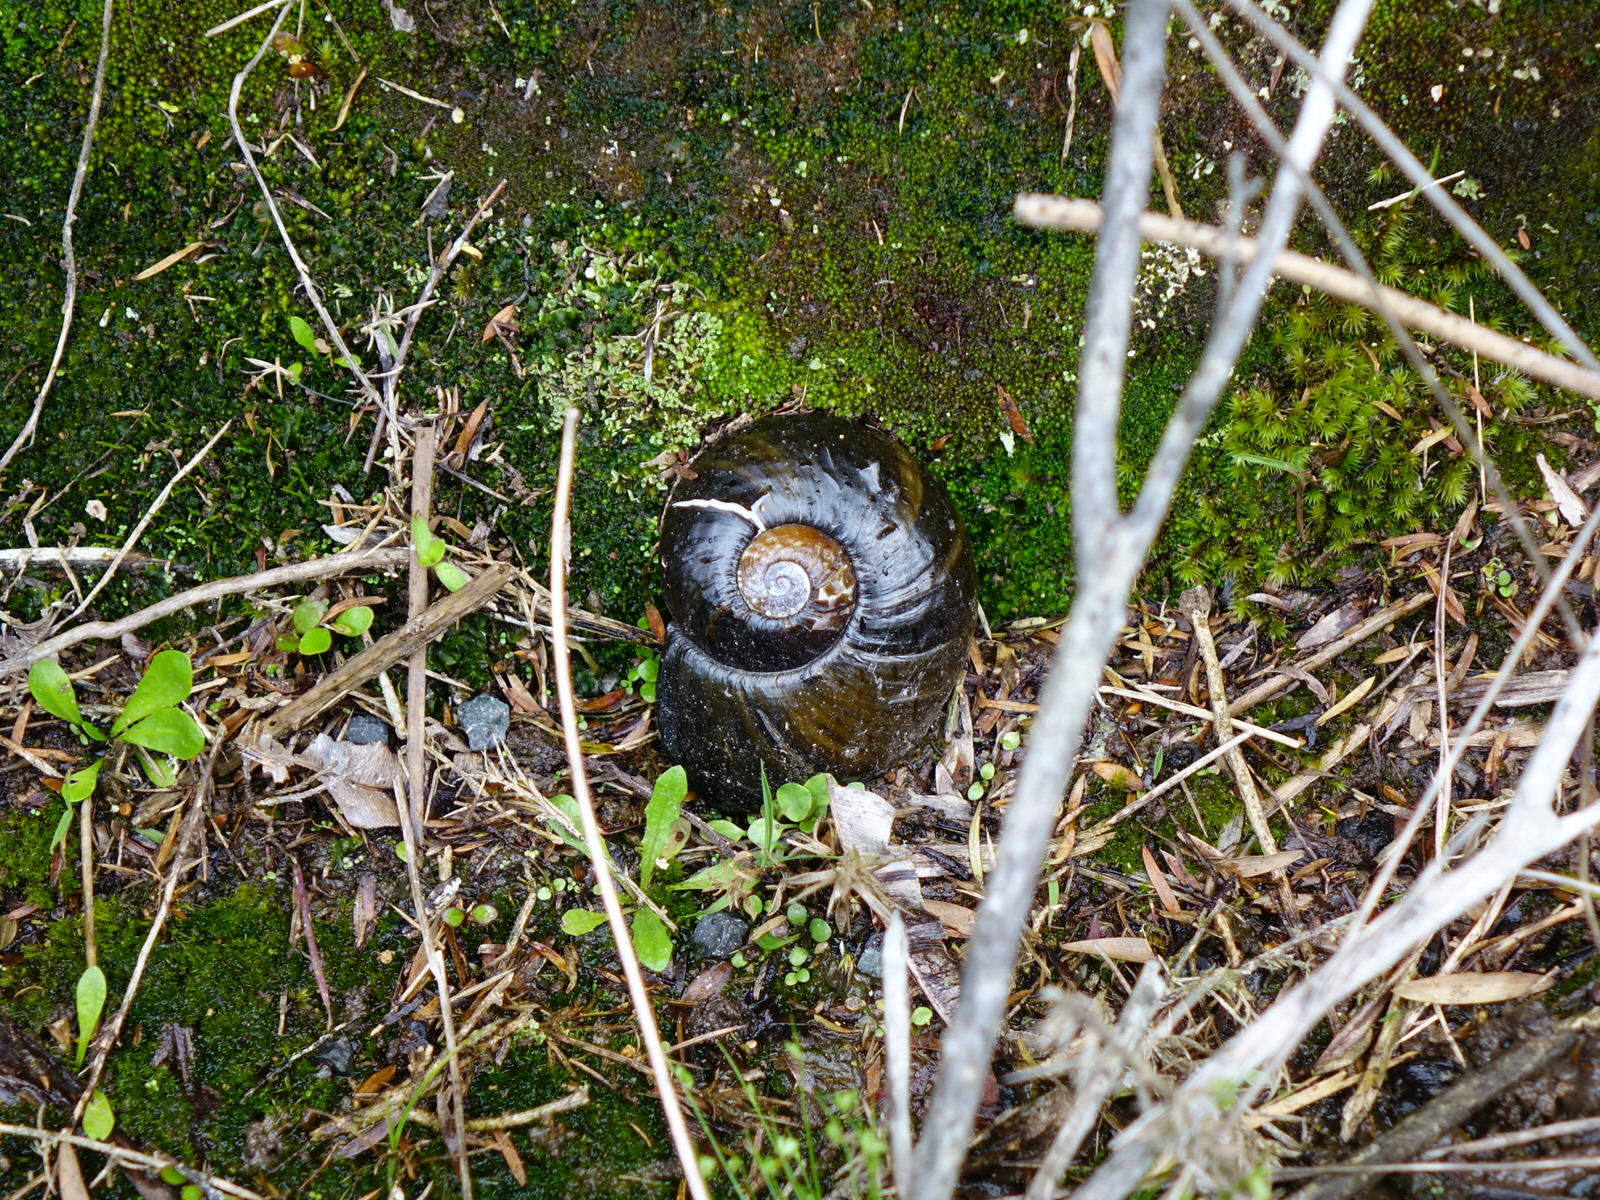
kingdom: Animalia
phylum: Mollusca
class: Gastropoda
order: Stylommatophora
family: Rhytididae
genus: Paryphanta
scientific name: Paryphanta busbyi
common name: Kauri snail
